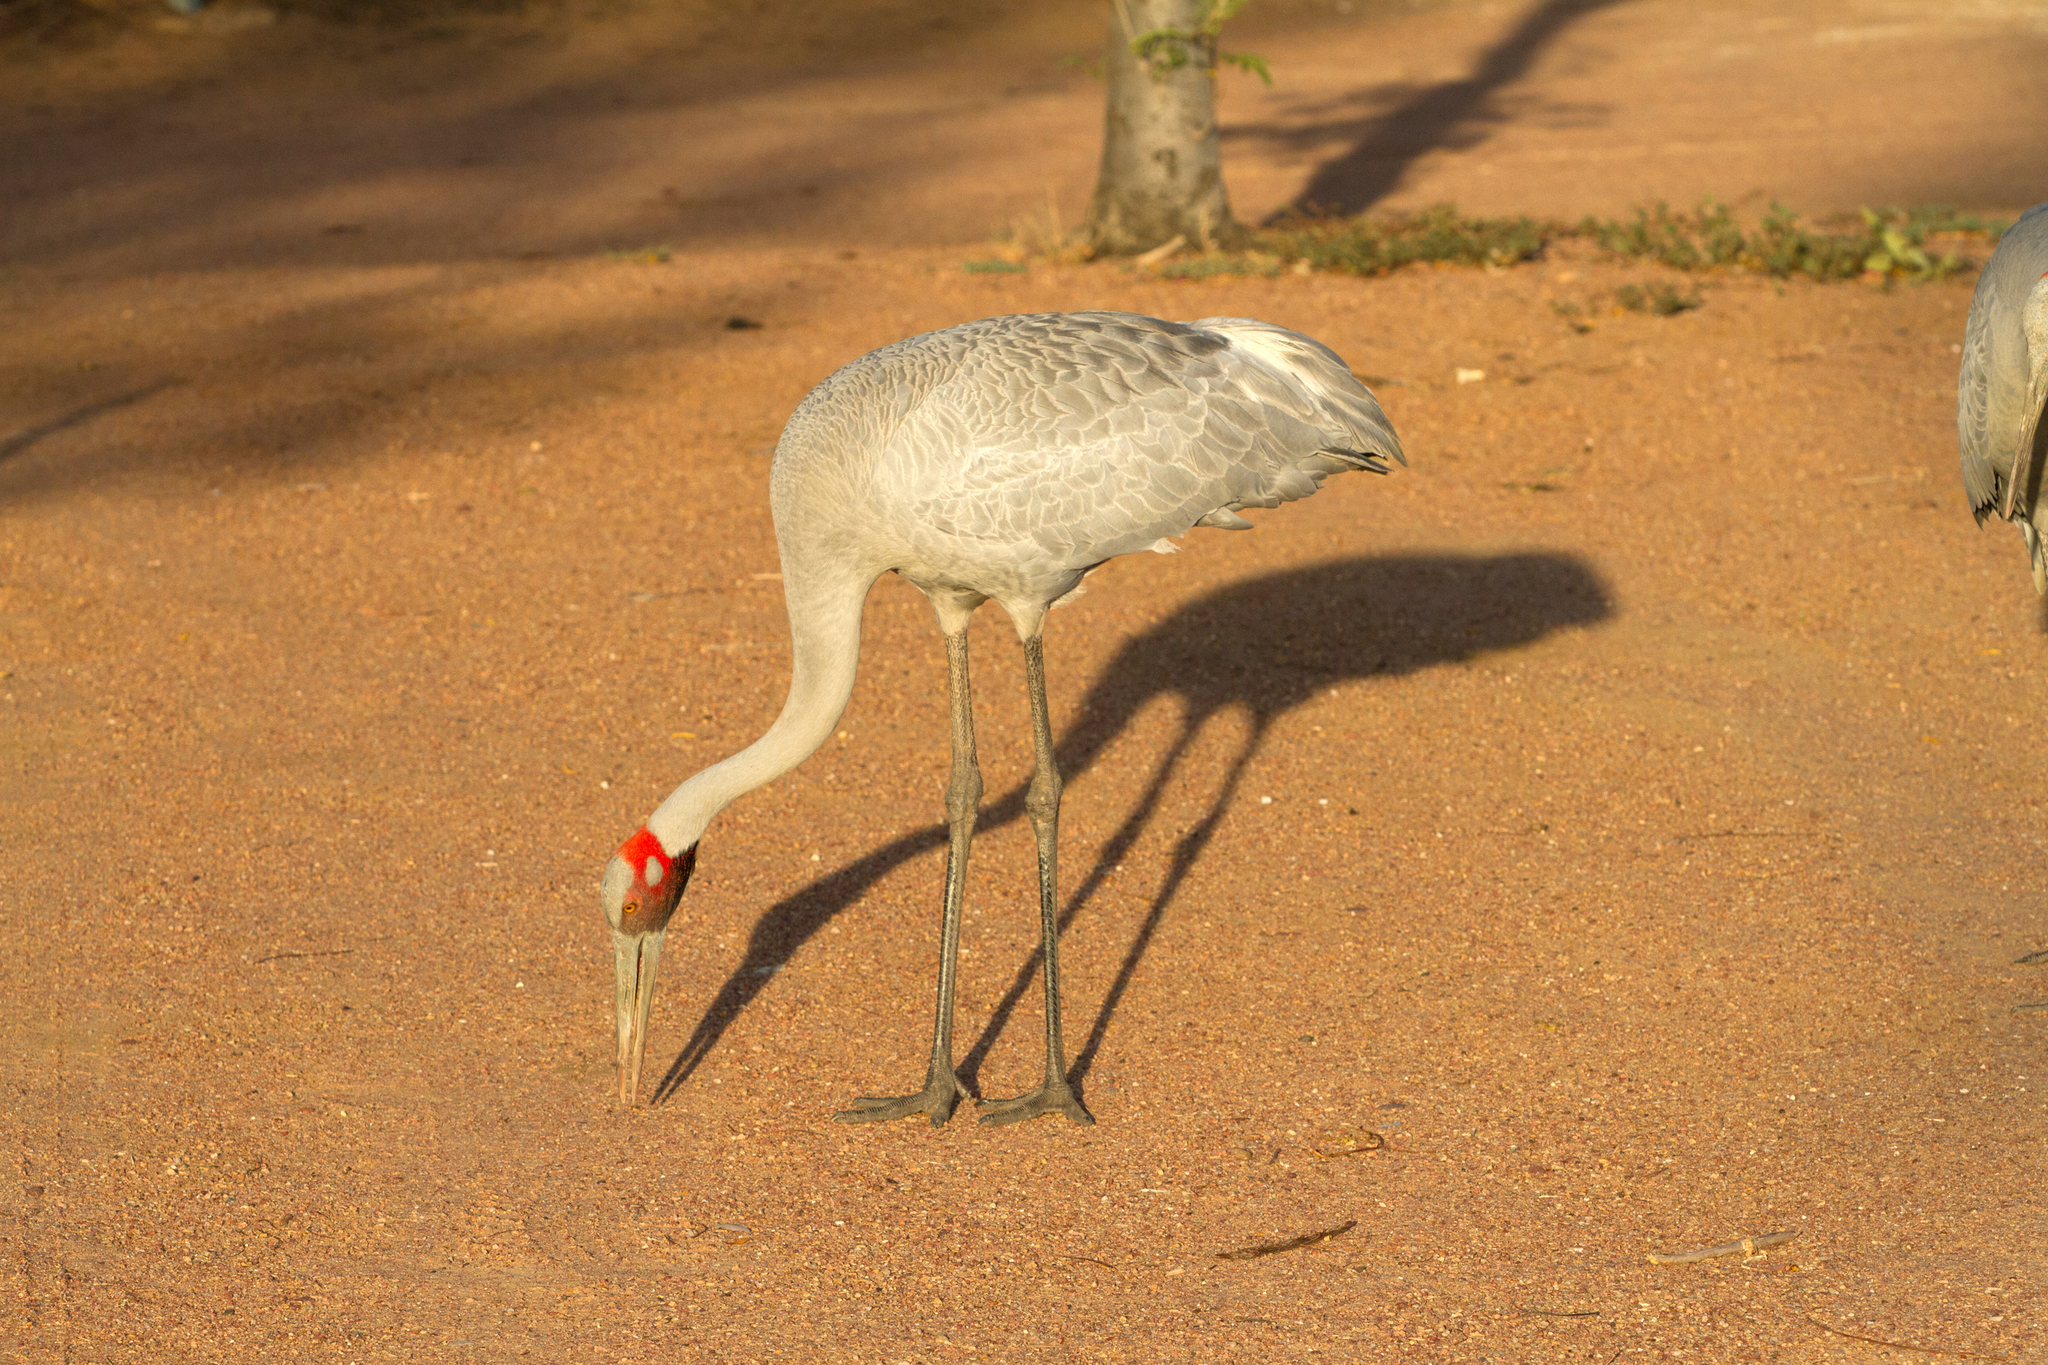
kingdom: Animalia
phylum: Chordata
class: Aves
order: Gruiformes
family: Gruidae
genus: Grus
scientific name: Grus rubicunda
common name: Brolga
